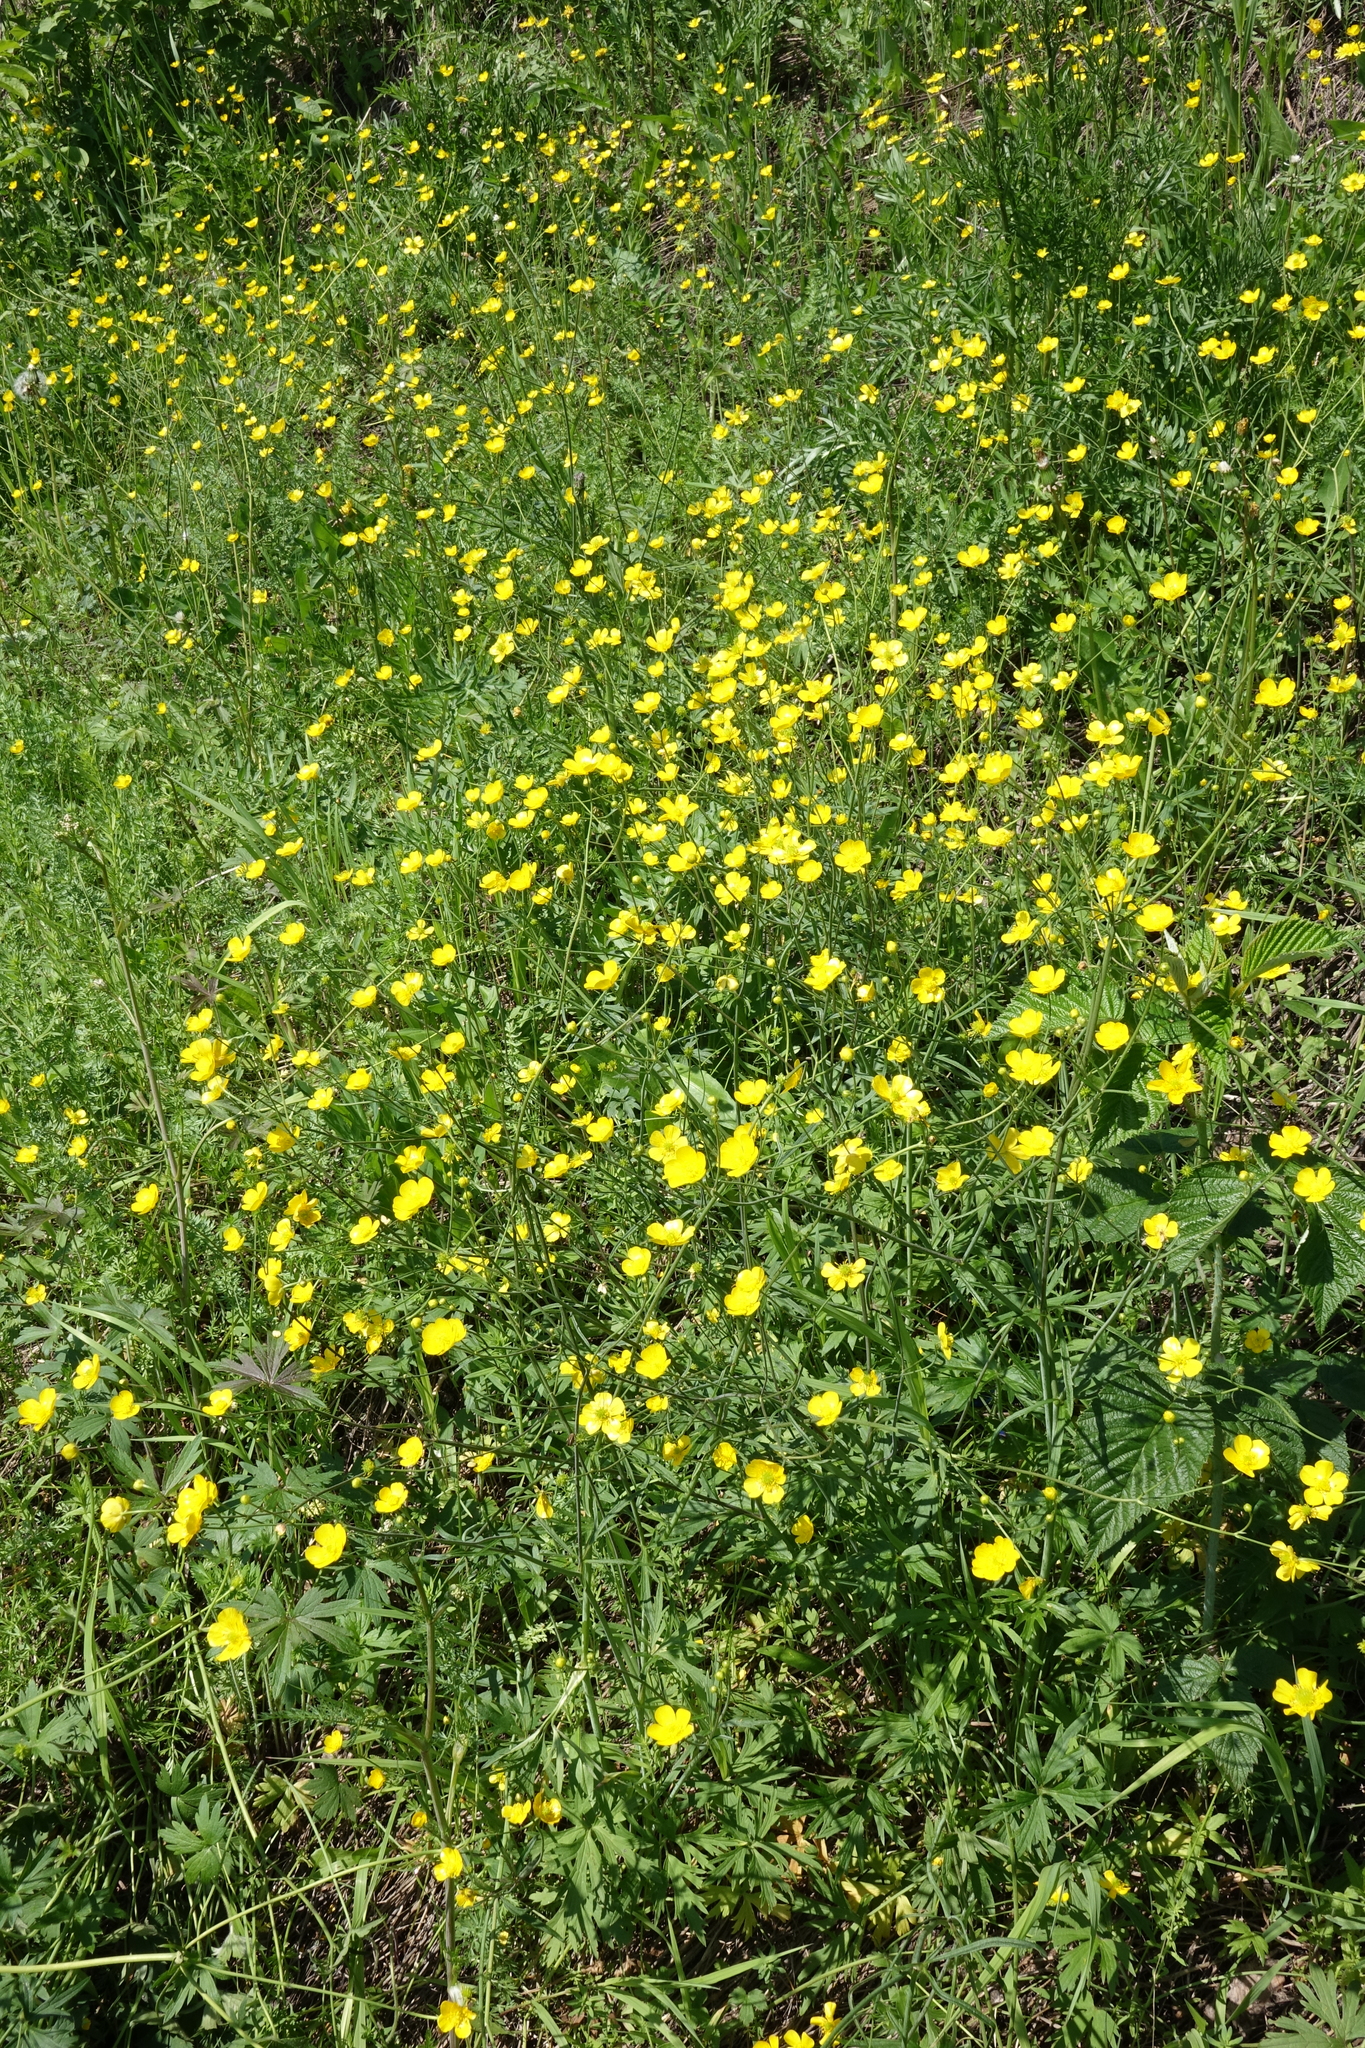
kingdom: Plantae
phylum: Tracheophyta
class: Magnoliopsida
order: Ranunculales
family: Ranunculaceae
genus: Ranunculus
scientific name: Ranunculus acris
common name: Meadow buttercup
